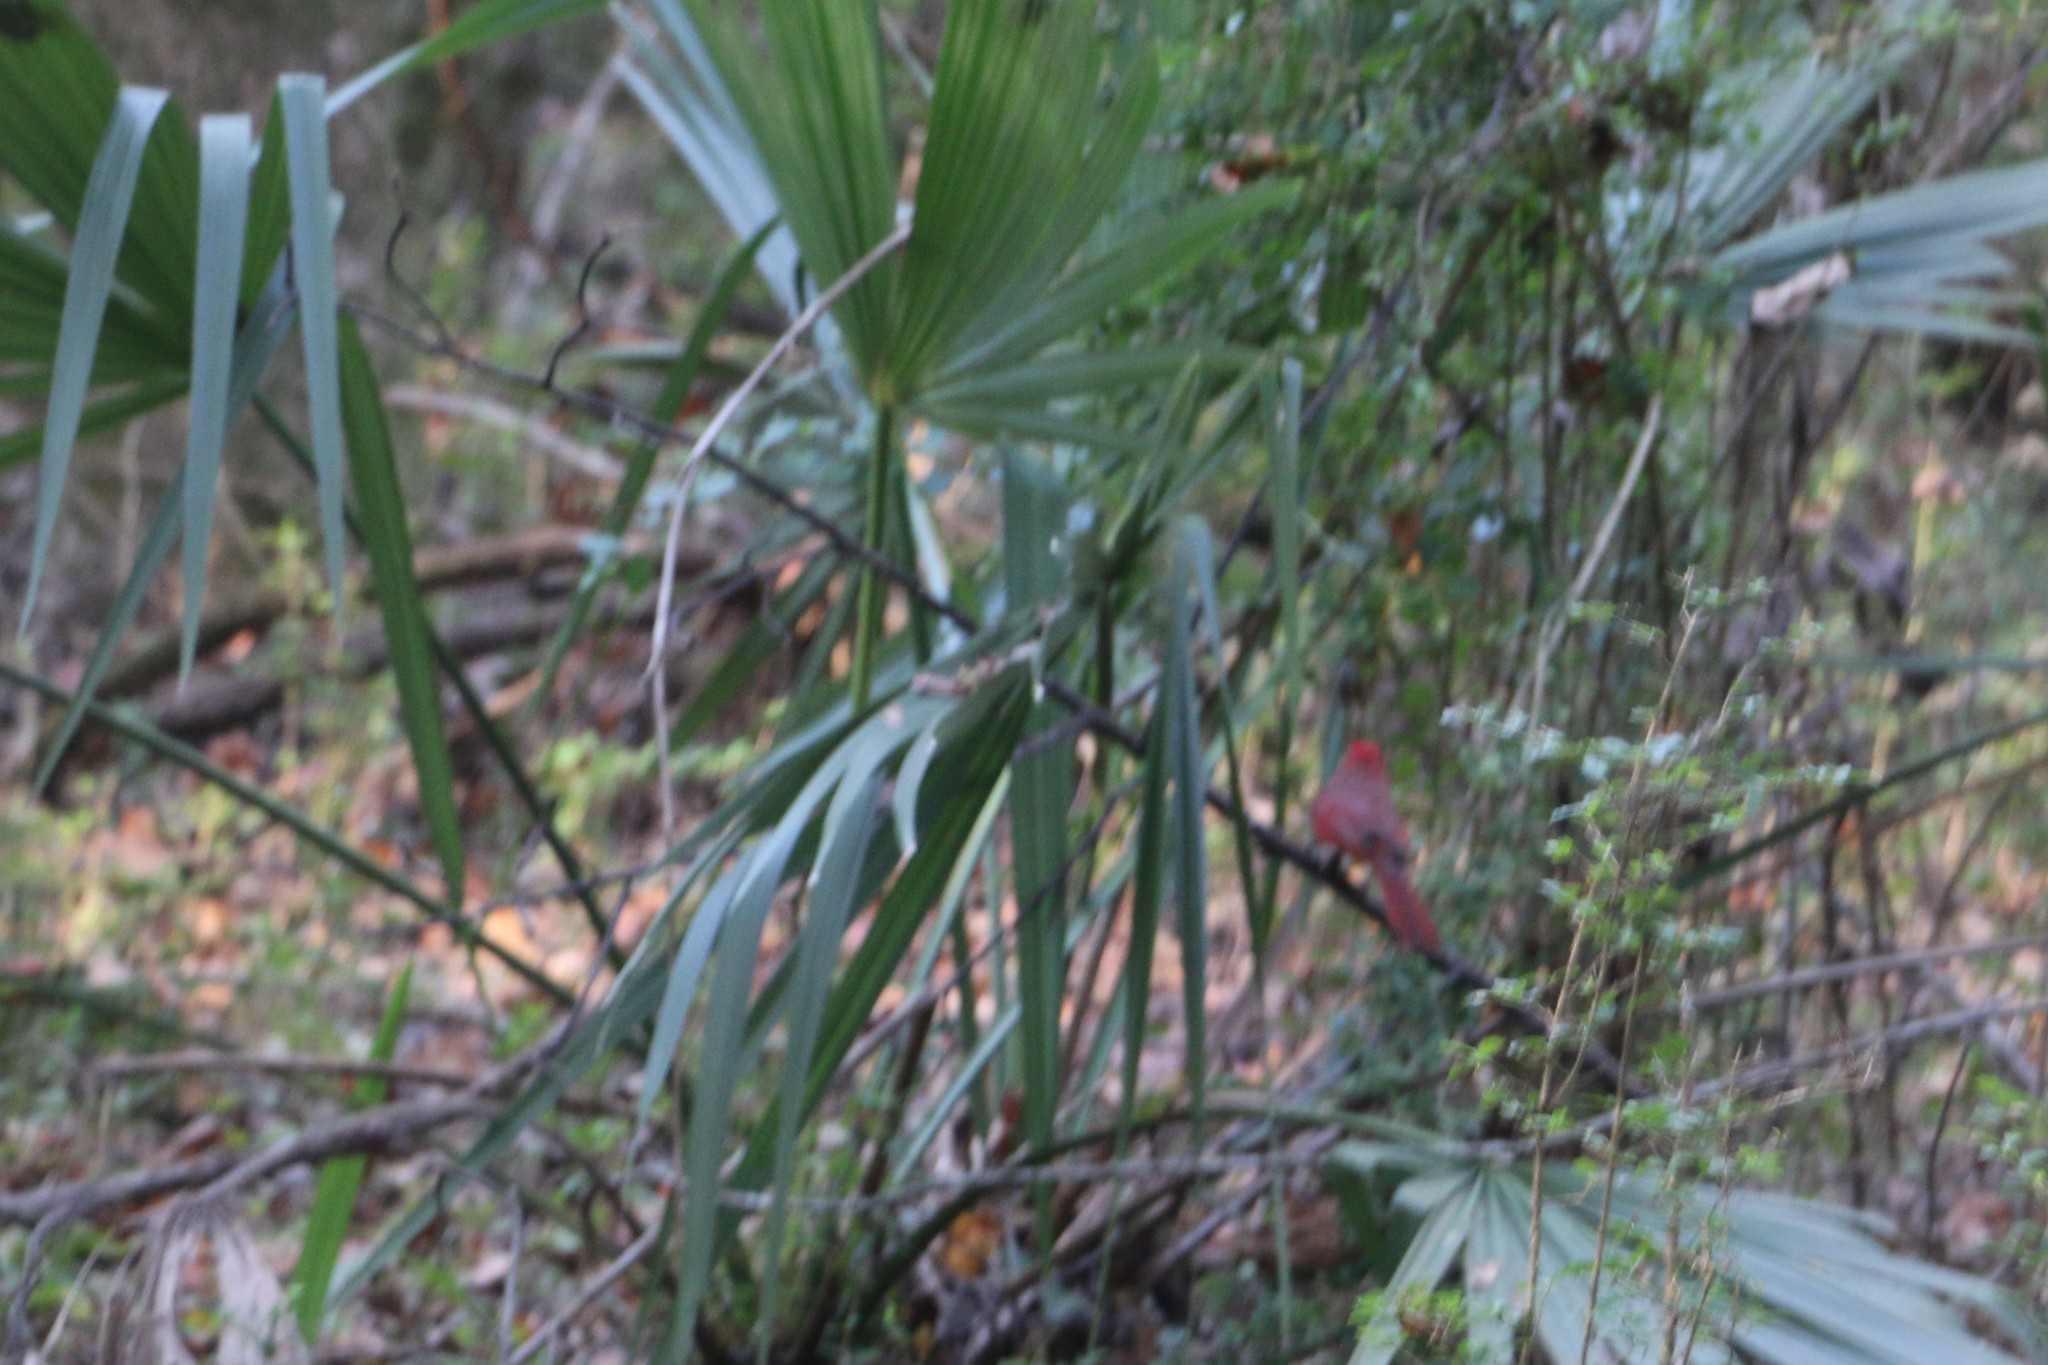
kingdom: Animalia
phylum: Chordata
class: Aves
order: Passeriformes
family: Cardinalidae
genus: Cardinalis
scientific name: Cardinalis cardinalis
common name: Northern cardinal
